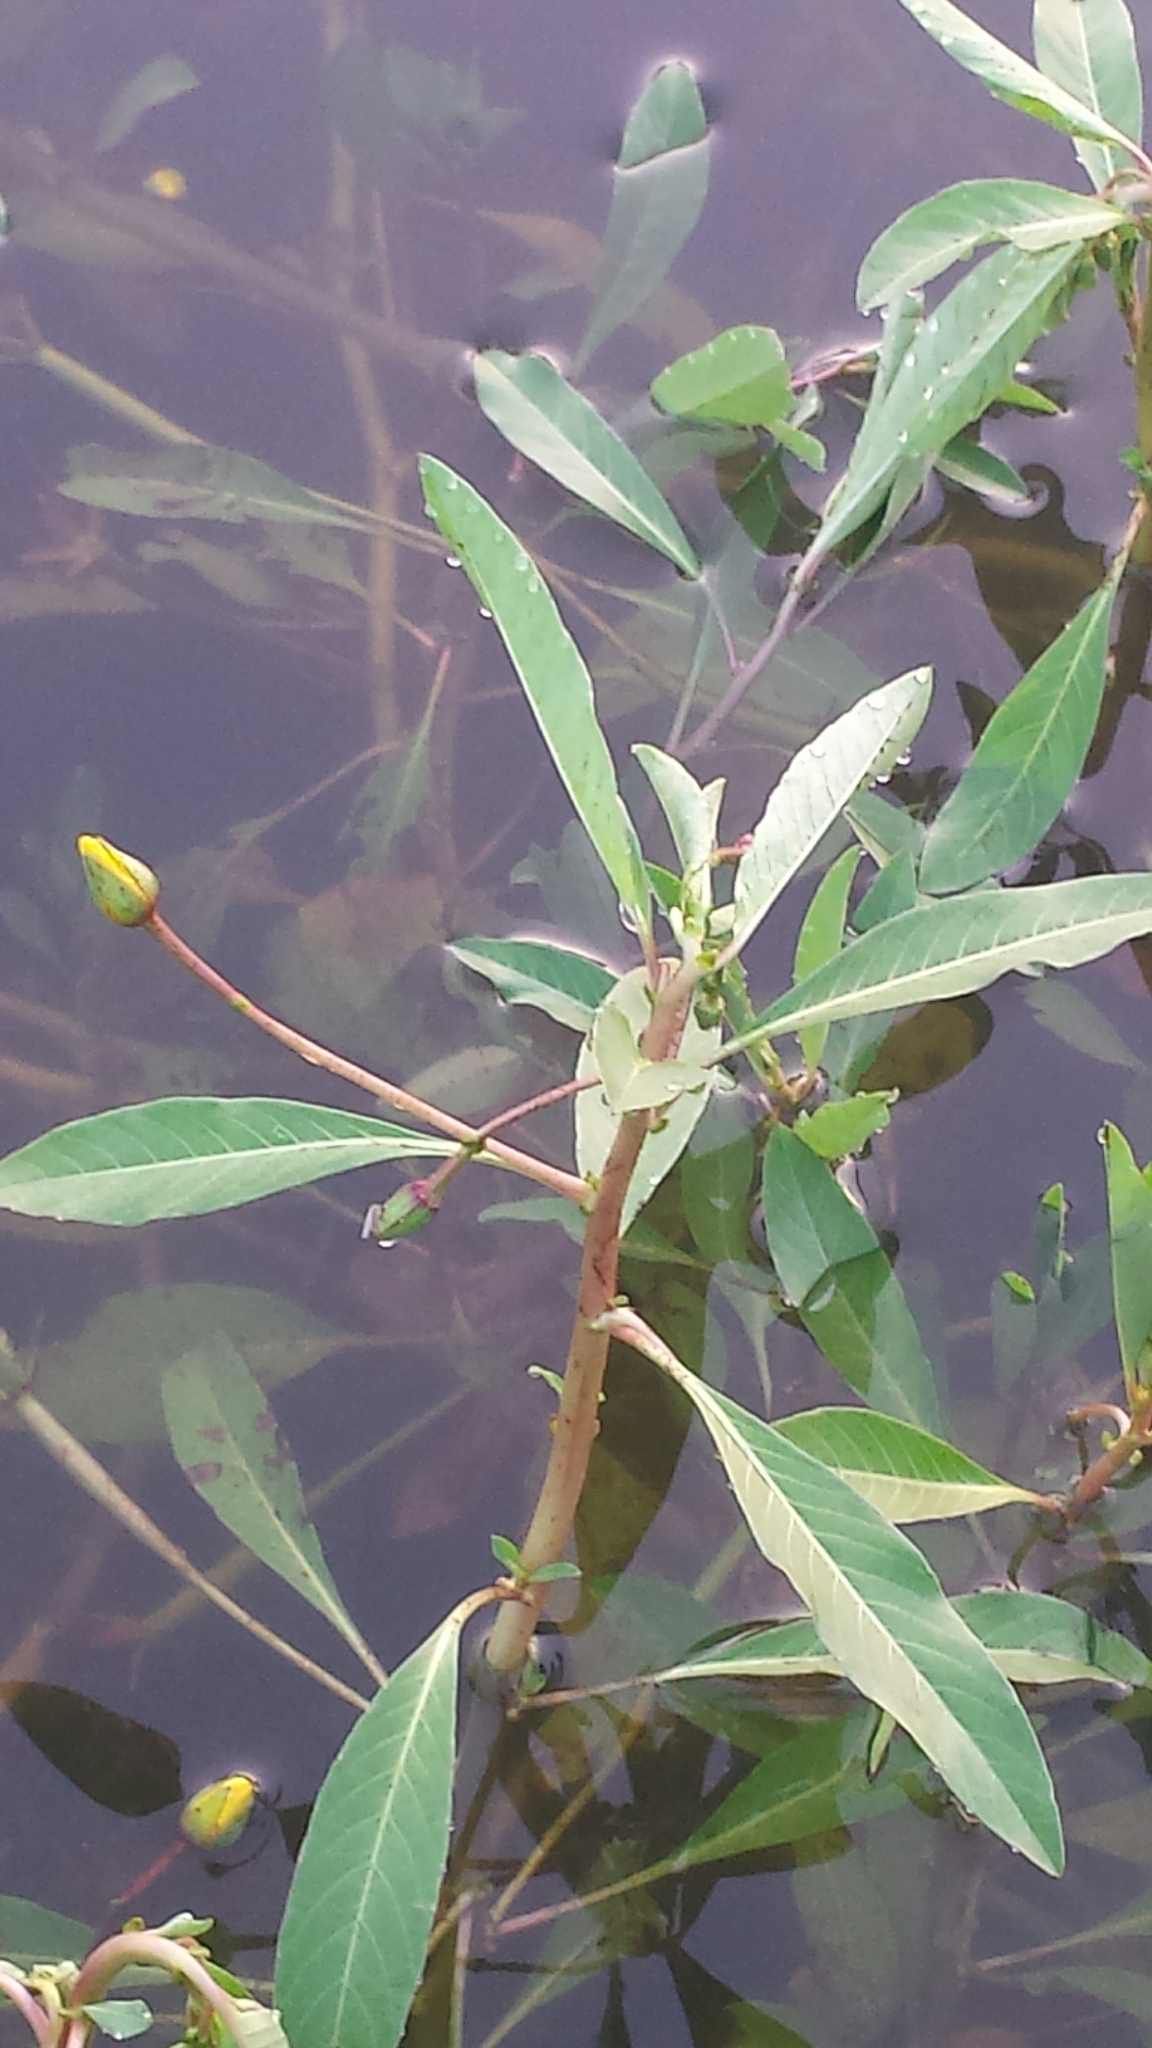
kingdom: Plantae
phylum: Tracheophyta
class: Magnoliopsida
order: Myrtales
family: Onagraceae
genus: Ludwigia
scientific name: Ludwigia peploides
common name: Floating primrose-willow
